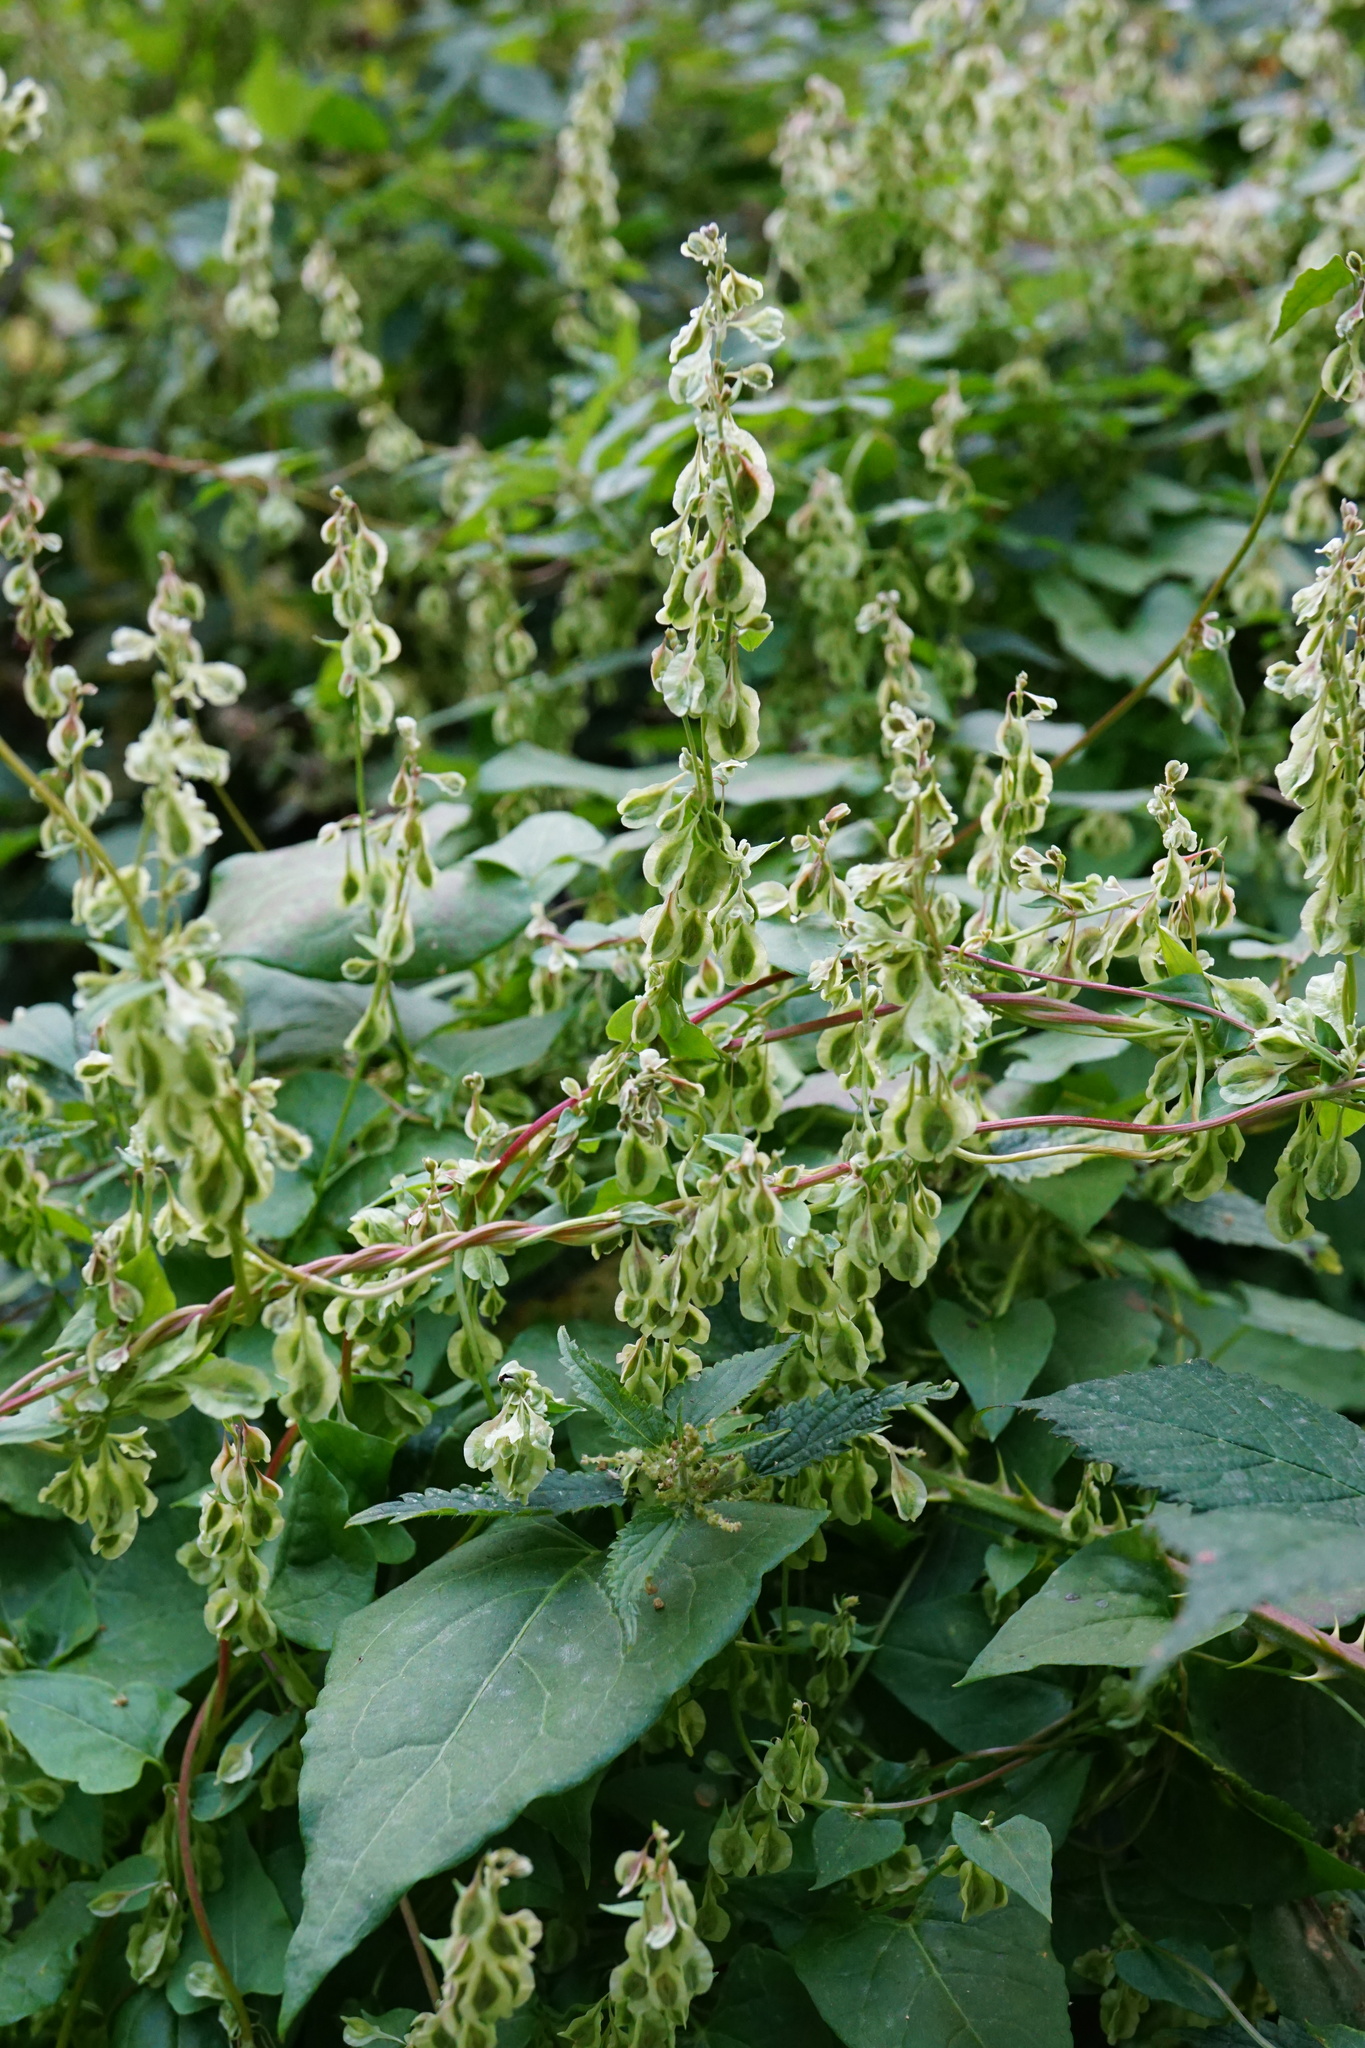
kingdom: Plantae
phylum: Tracheophyta
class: Magnoliopsida
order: Caryophyllales
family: Polygonaceae
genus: Fallopia
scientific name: Fallopia dumetorum
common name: Copse-bindweed
